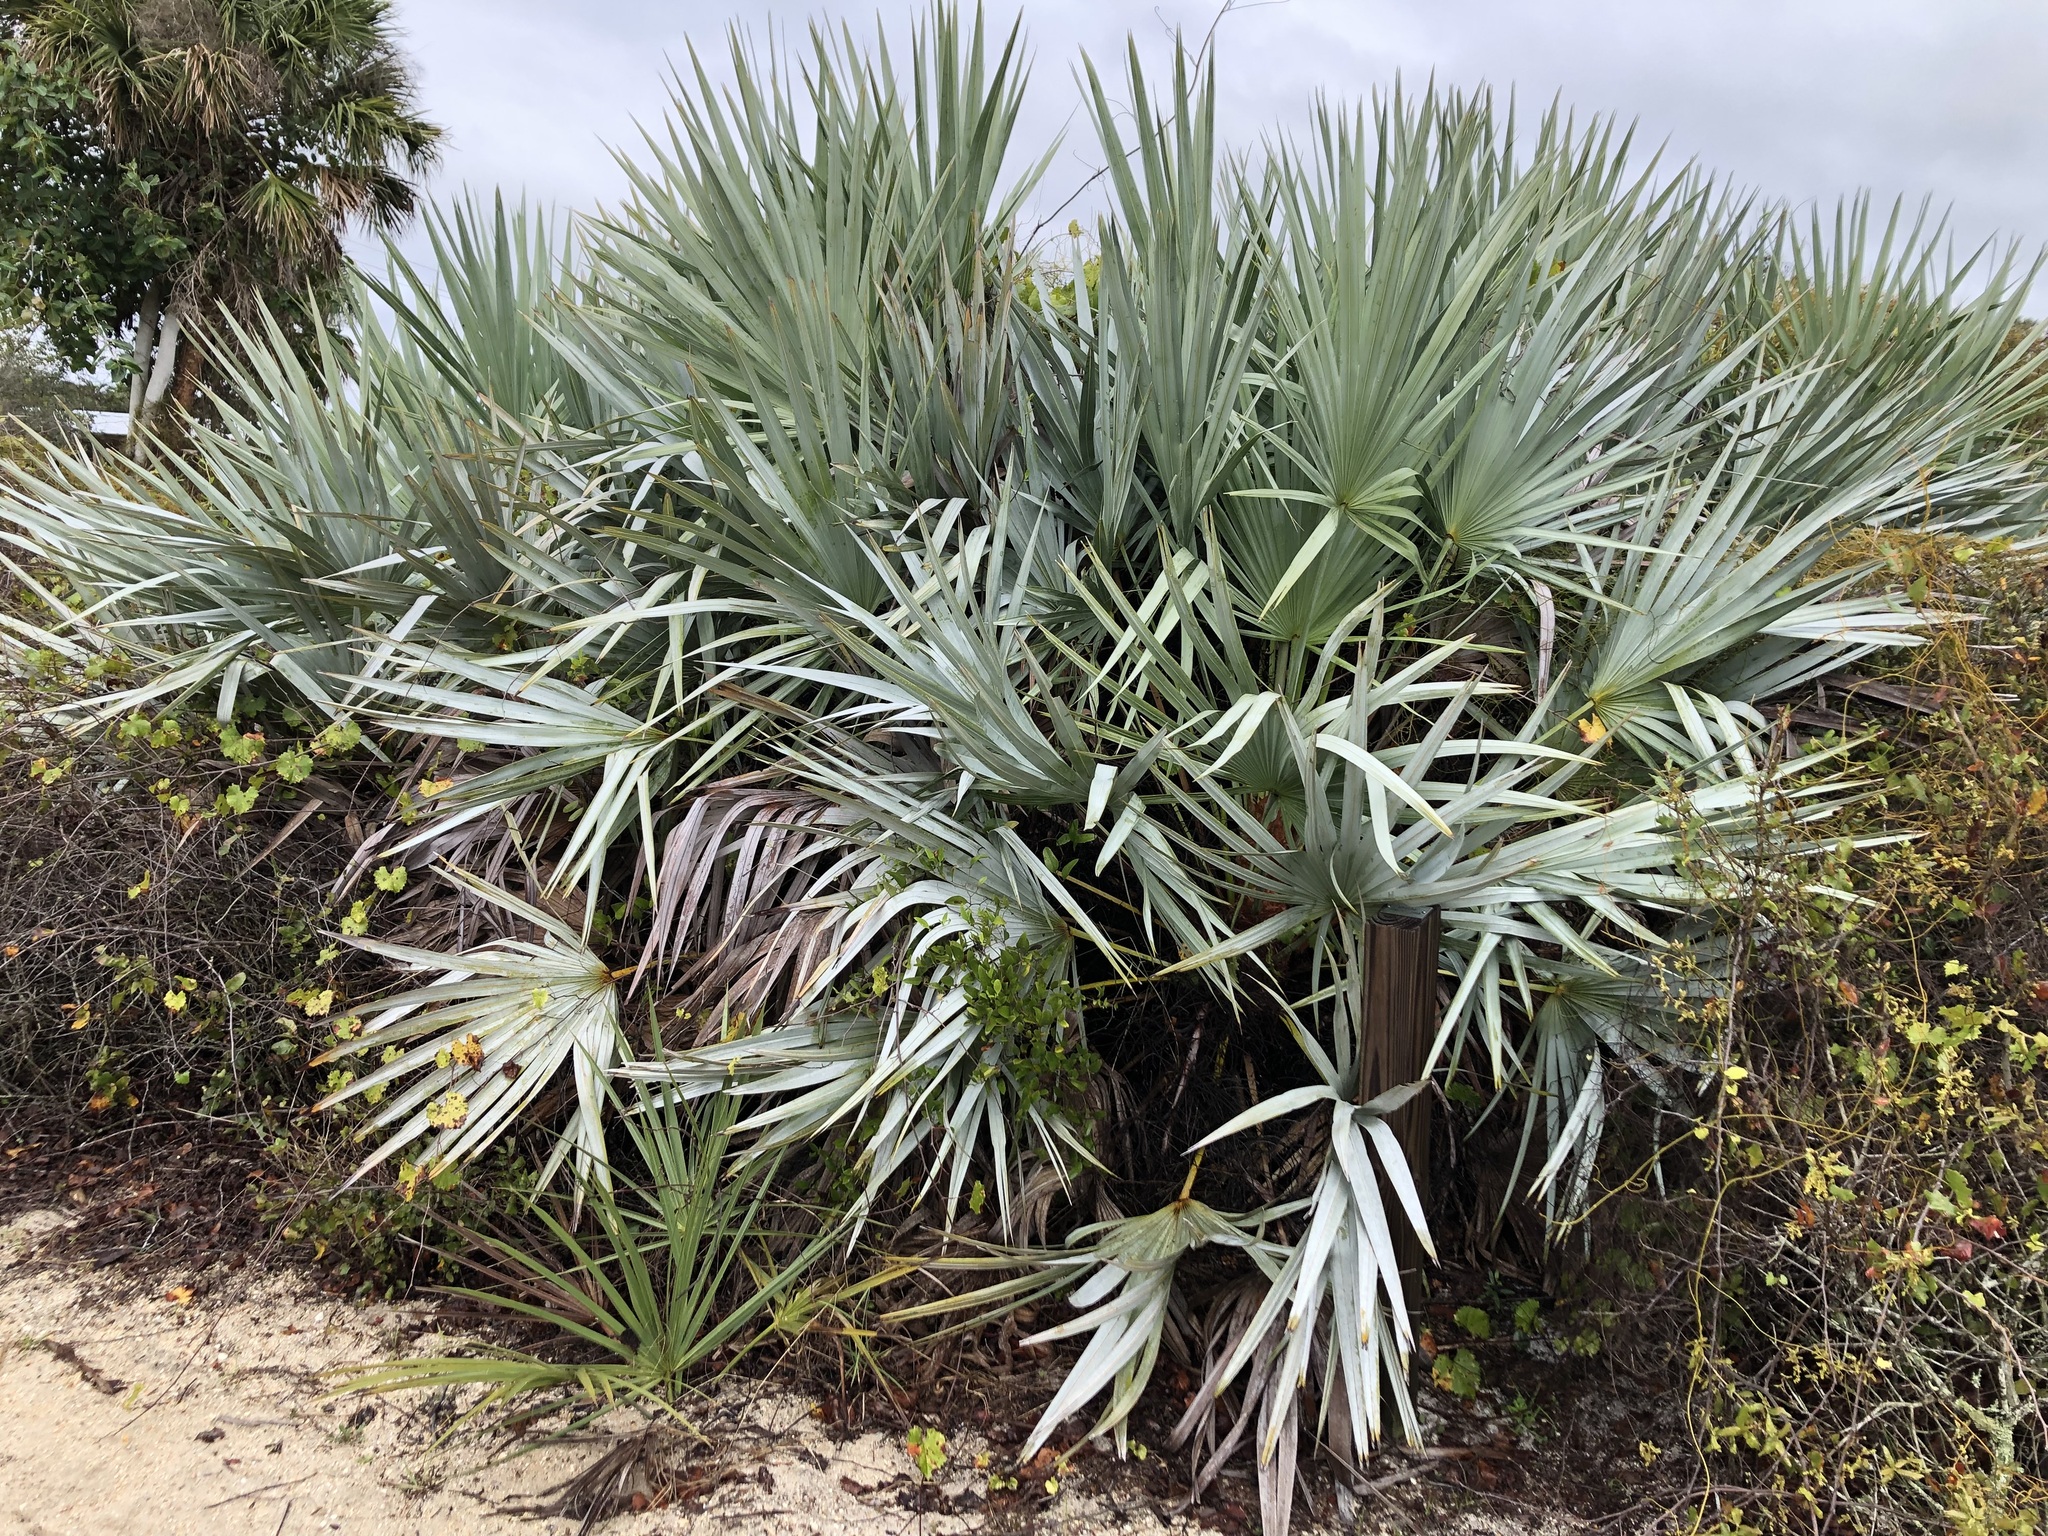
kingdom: Plantae
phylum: Tracheophyta
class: Liliopsida
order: Arecales
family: Arecaceae
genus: Serenoa
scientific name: Serenoa repens
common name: Saw-palmetto
